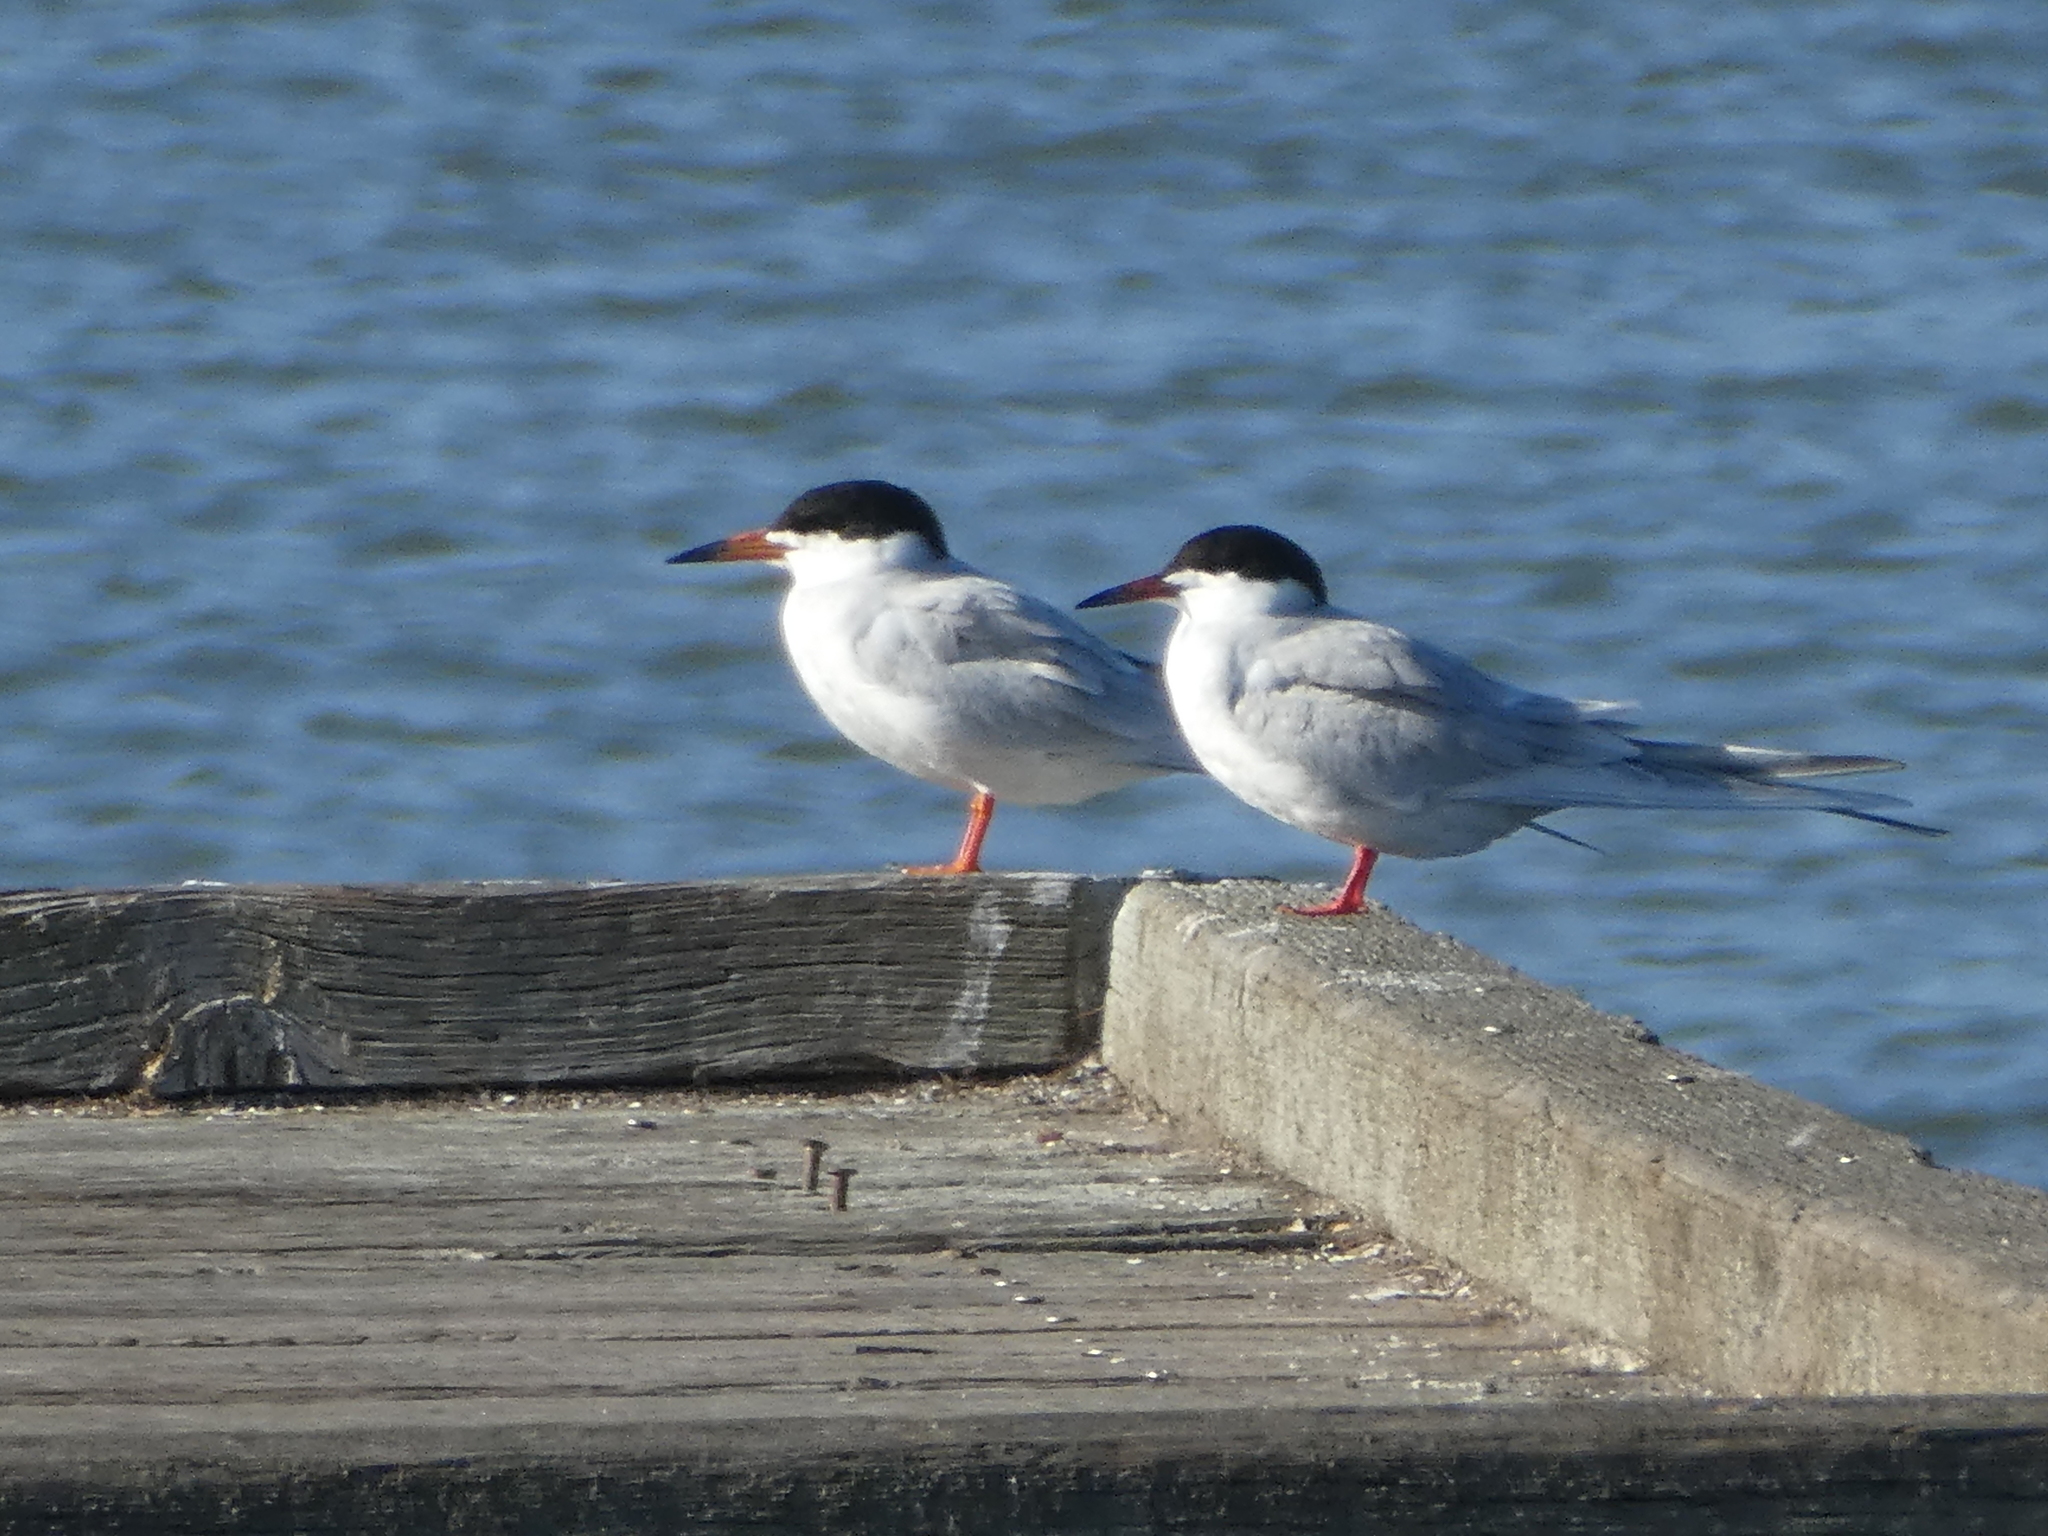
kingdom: Animalia
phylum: Chordata
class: Aves
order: Charadriiformes
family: Laridae
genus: Sterna
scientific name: Sterna forsteri
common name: Forster's tern
